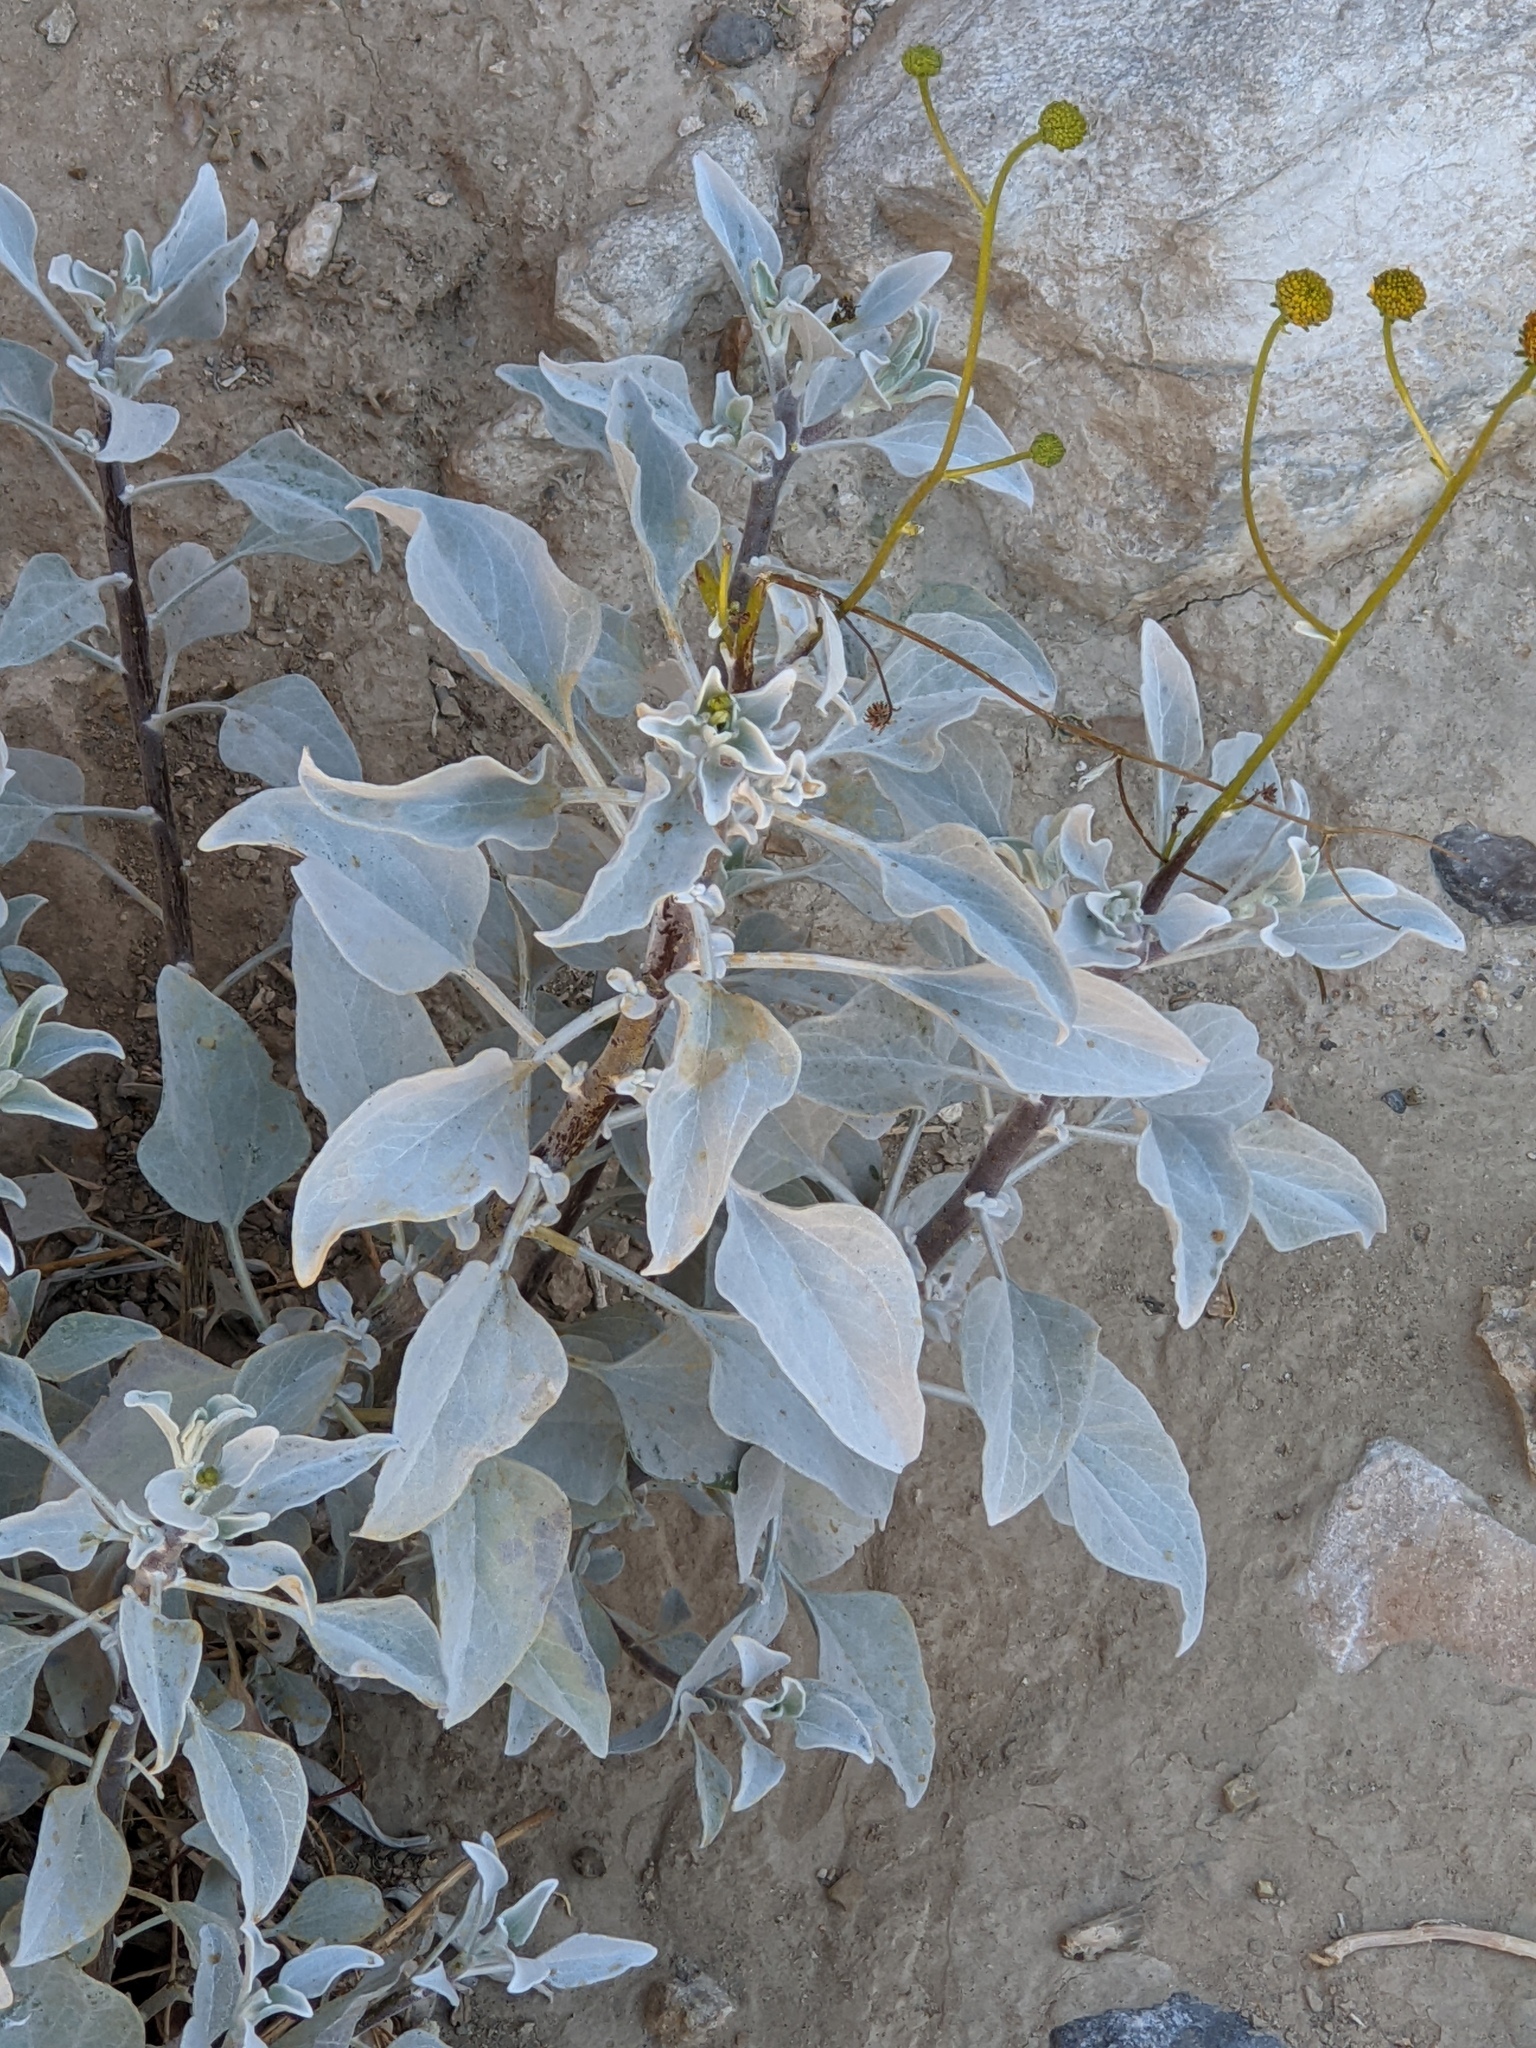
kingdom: Plantae
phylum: Tracheophyta
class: Magnoliopsida
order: Asterales
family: Asteraceae
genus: Encelia
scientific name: Encelia farinosa
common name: Brittlebush
